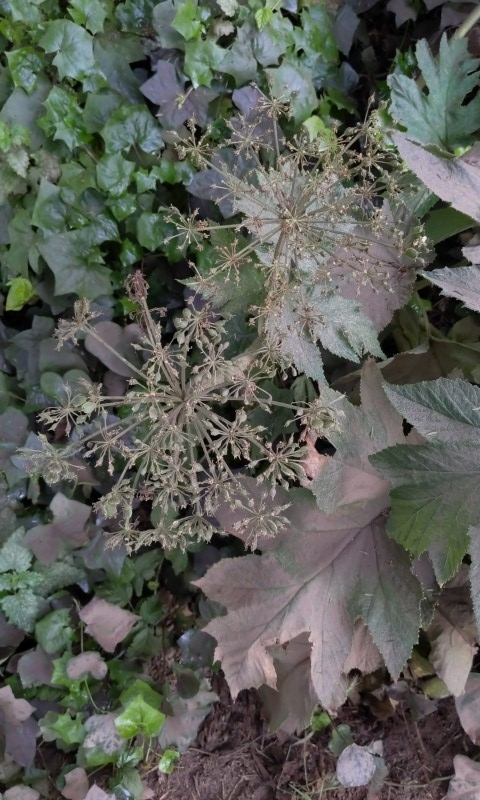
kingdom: Plantae
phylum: Tracheophyta
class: Magnoliopsida
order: Apiales
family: Apiaceae
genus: Heracleum
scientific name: Heracleum maximum
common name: American cow parsnip
